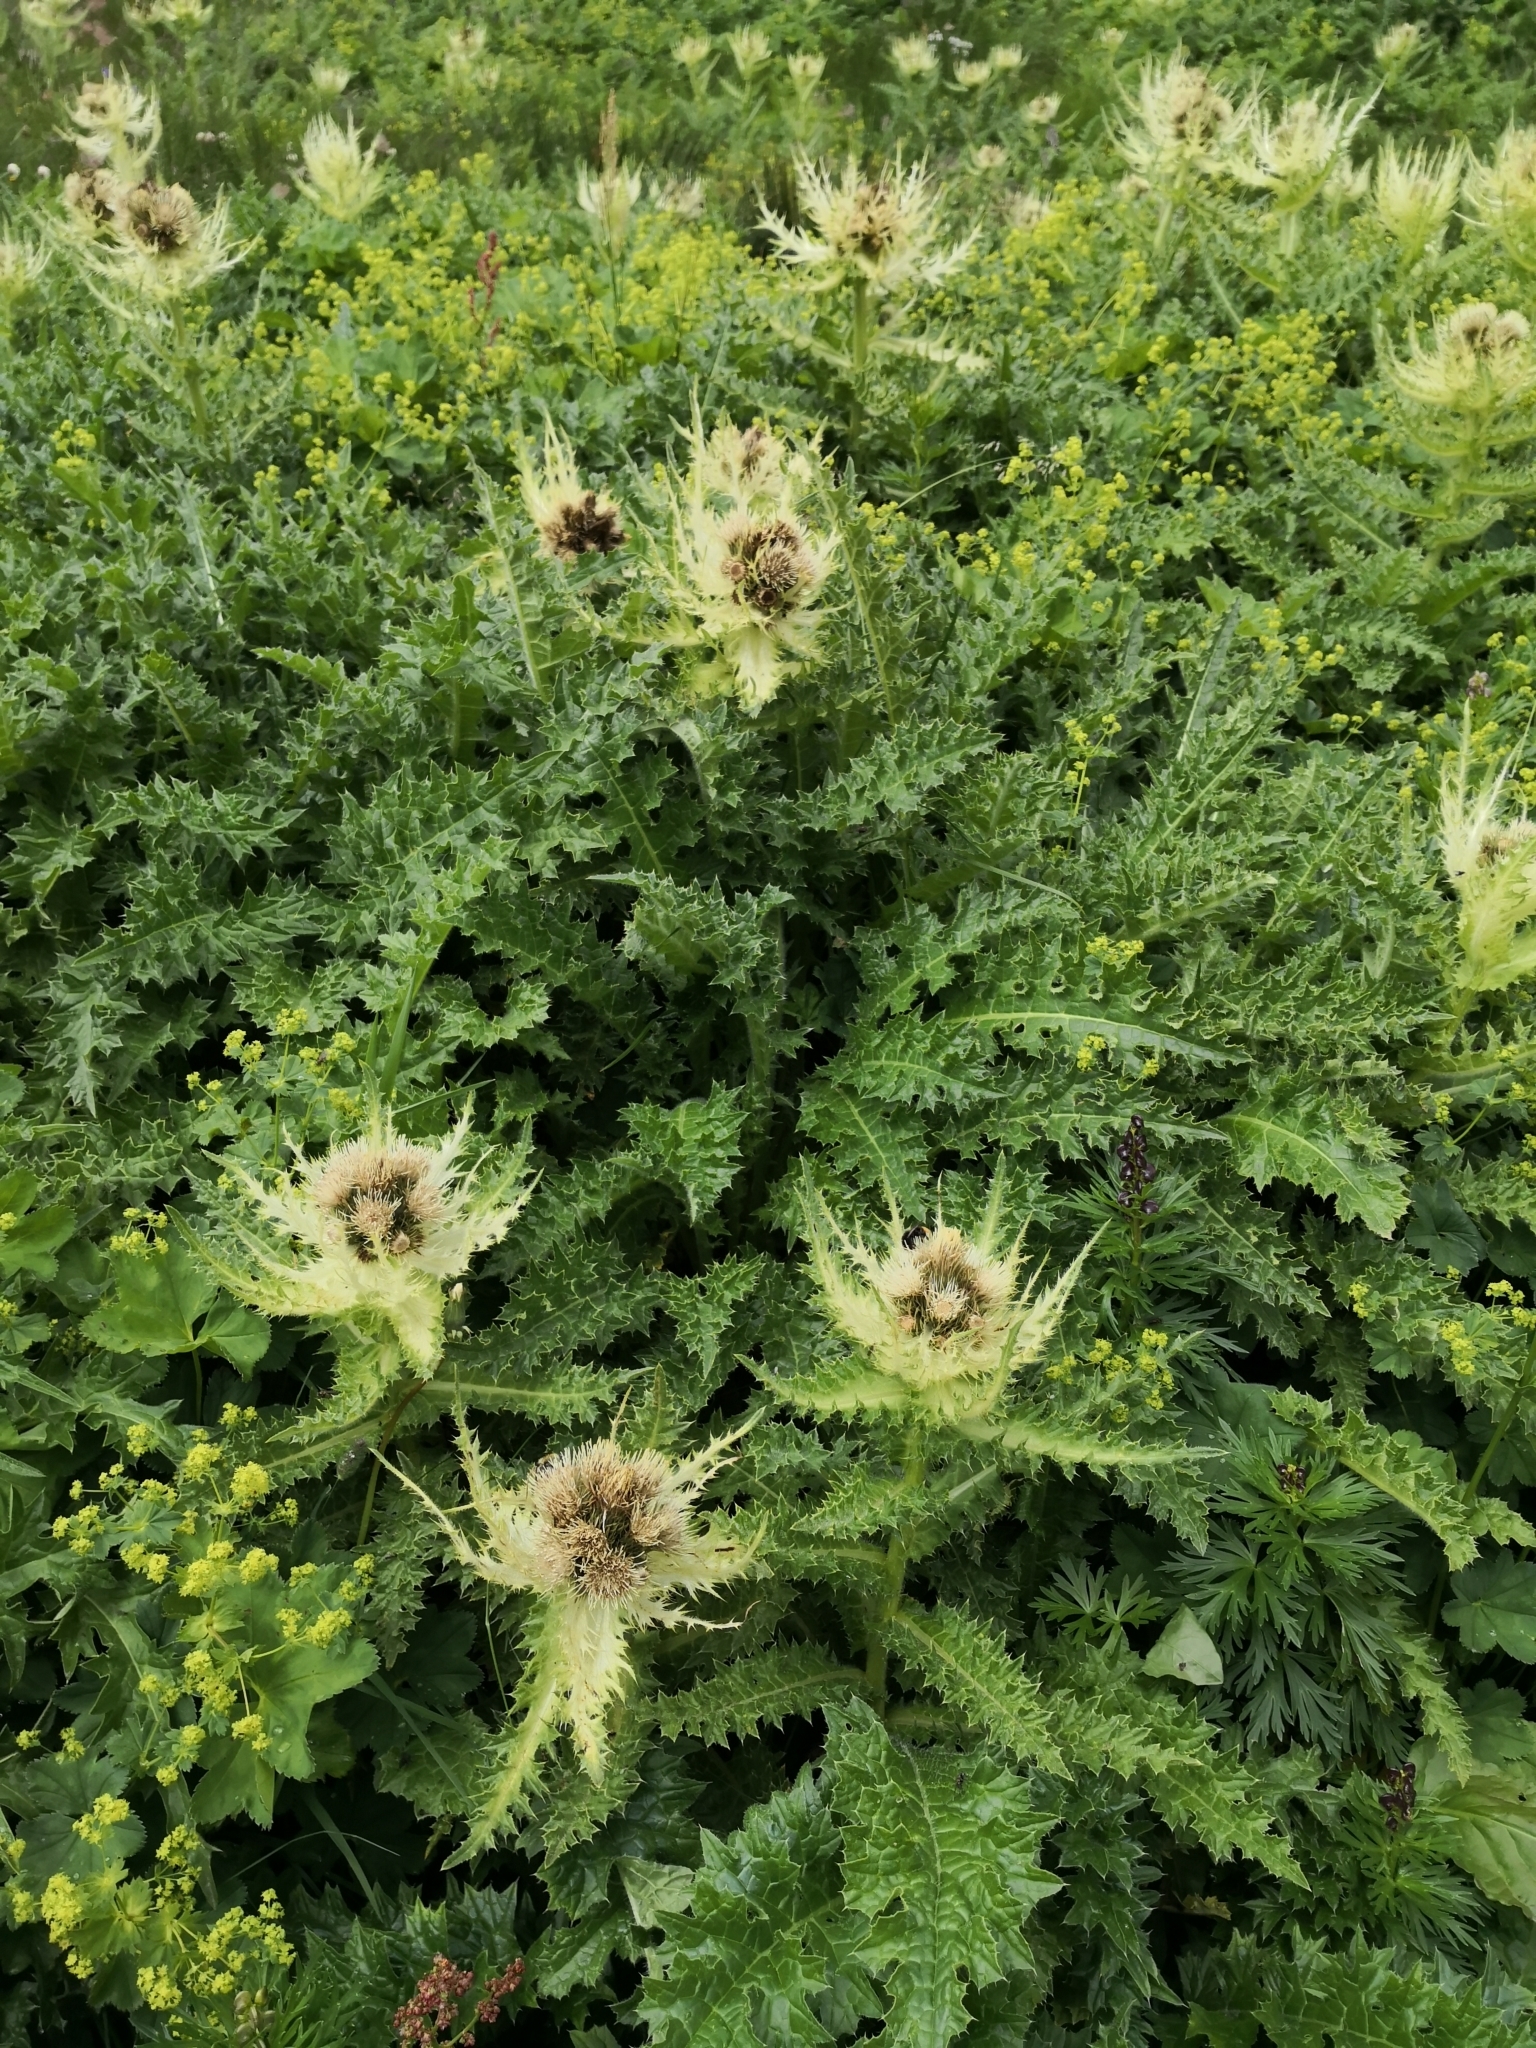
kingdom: Plantae
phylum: Tracheophyta
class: Magnoliopsida
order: Asterales
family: Asteraceae
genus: Cirsium
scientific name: Cirsium spinosissimum
